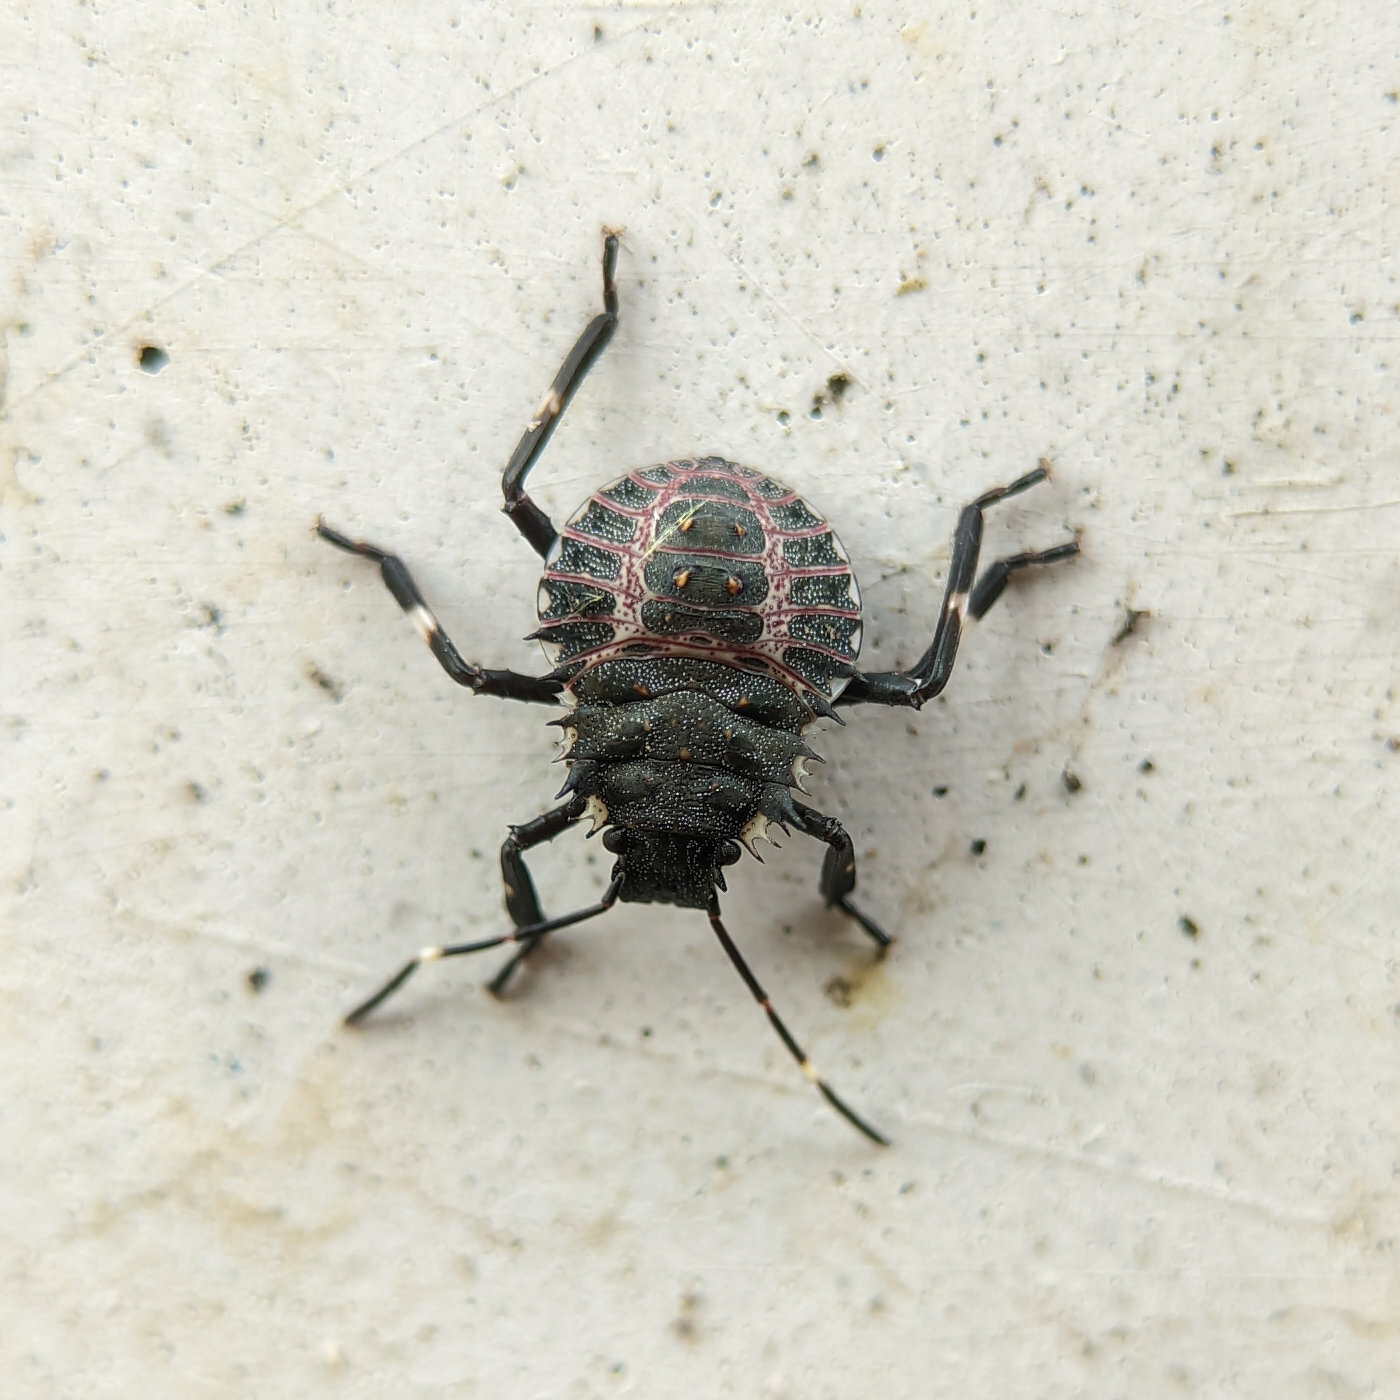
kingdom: Animalia
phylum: Arthropoda
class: Insecta
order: Hemiptera
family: Pentatomidae
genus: Halyomorpha
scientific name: Halyomorpha halys
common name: Brown marmorated stink bug
